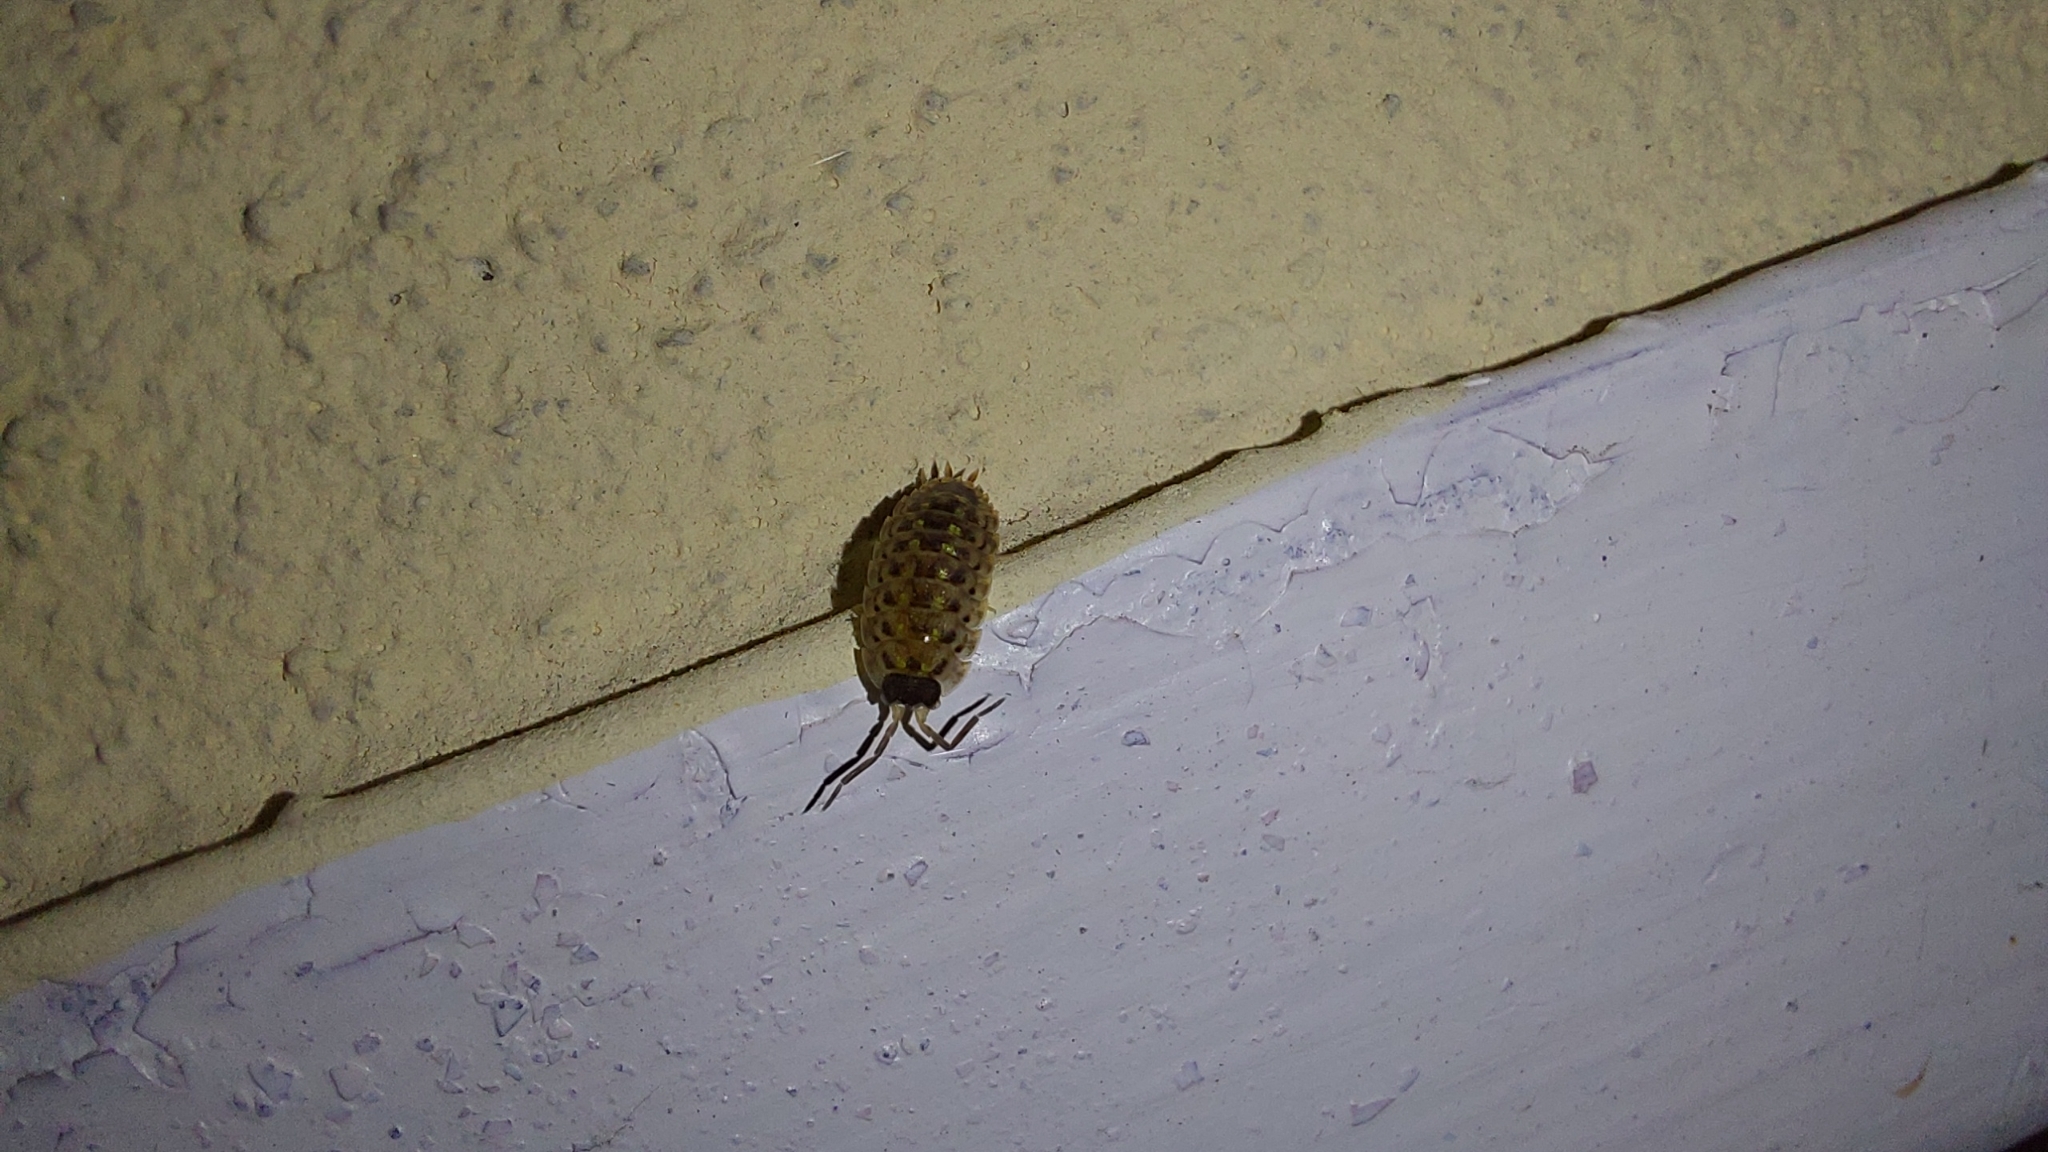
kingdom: Animalia
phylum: Arthropoda
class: Malacostraca
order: Isopoda
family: Porcellionidae
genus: Porcellio
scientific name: Porcellio spinicornis
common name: Painted woodlouse
